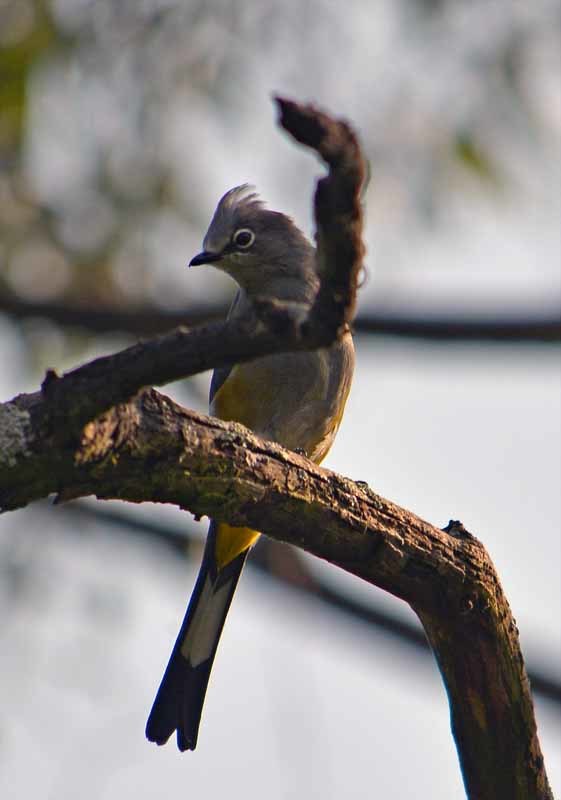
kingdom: Animalia
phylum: Chordata
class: Aves
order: Passeriformes
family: Ptilogonatidae
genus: Ptilogonys
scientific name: Ptilogonys cinereus
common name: Gray silky-flycatcher
